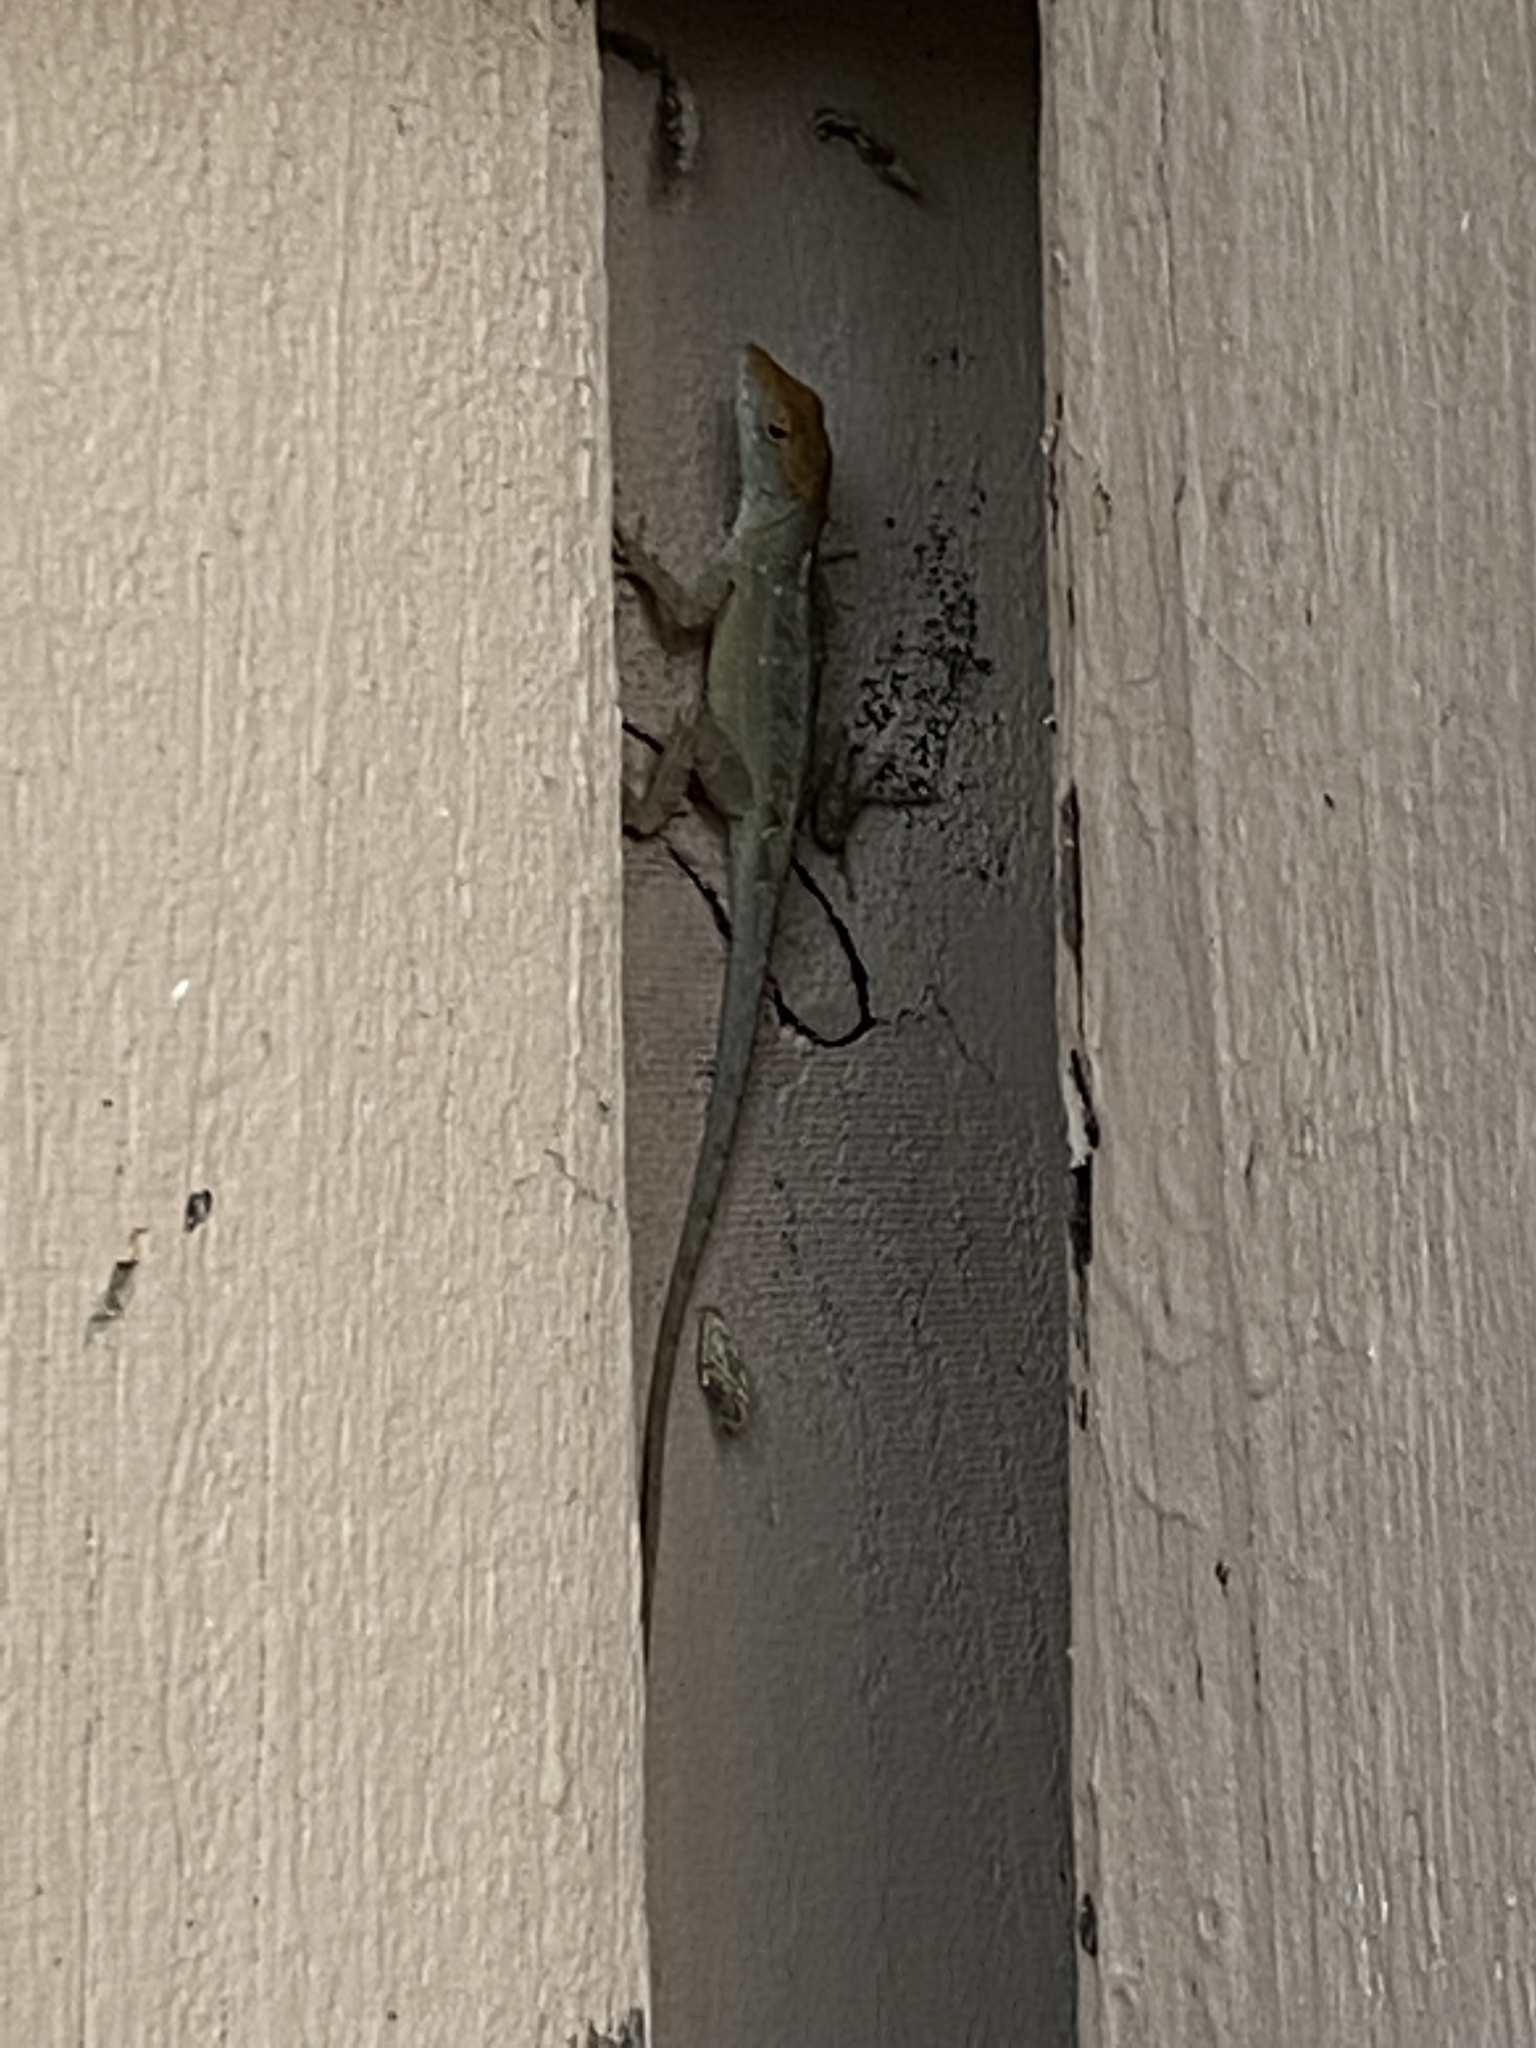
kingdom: Animalia
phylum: Chordata
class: Squamata
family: Dactyloidae
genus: Anolis
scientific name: Anolis sagrei
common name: Brown anole
